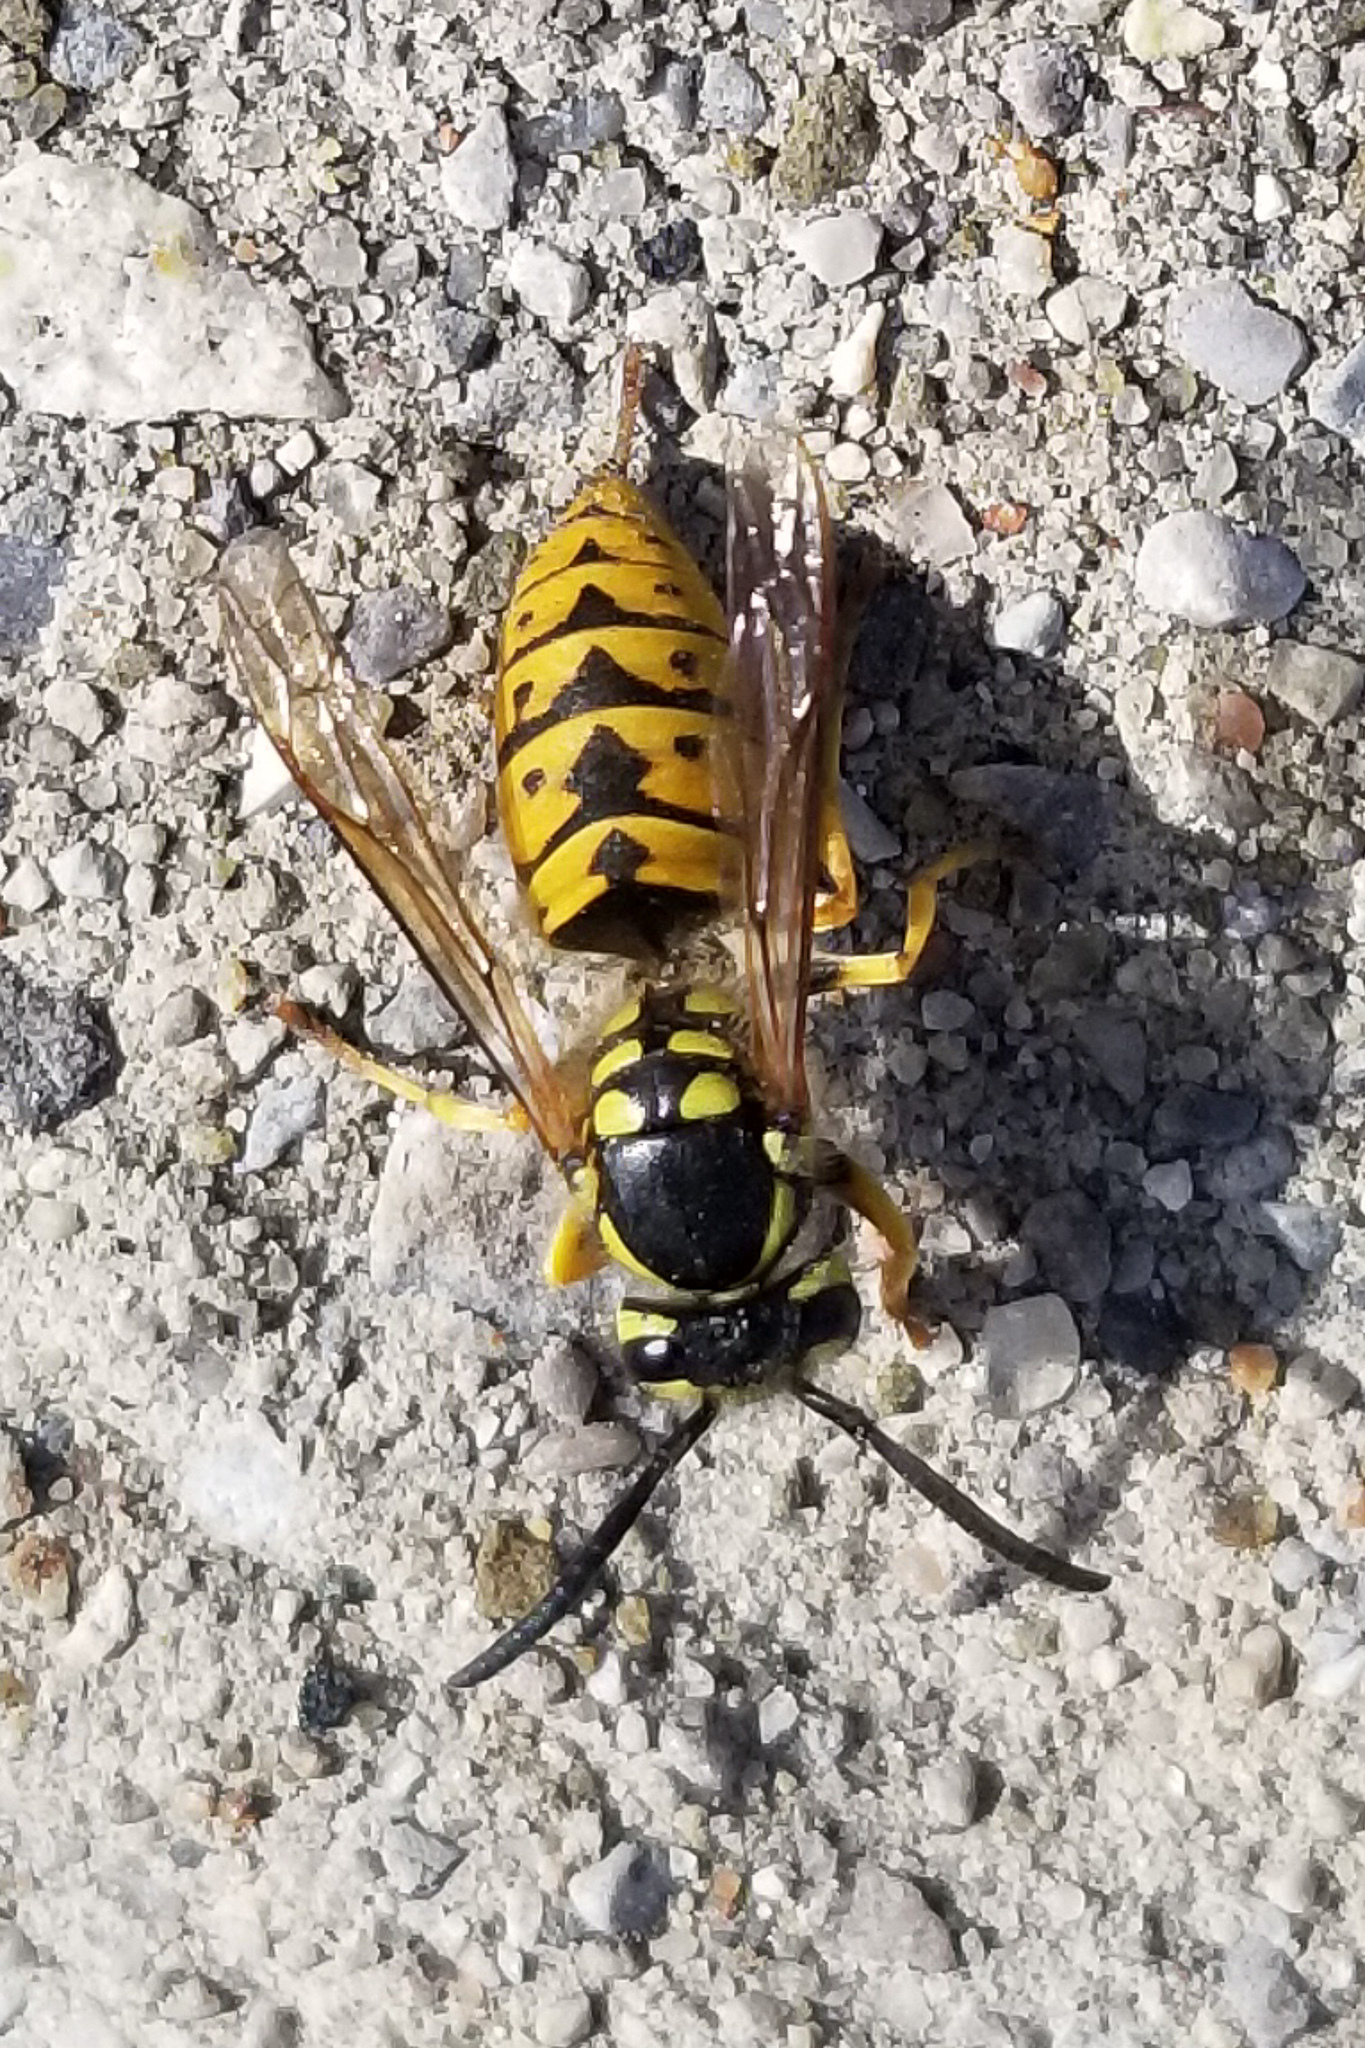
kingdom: Animalia
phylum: Arthropoda
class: Insecta
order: Hymenoptera
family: Vespidae
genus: Vespula
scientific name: Vespula germanica
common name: German wasp
